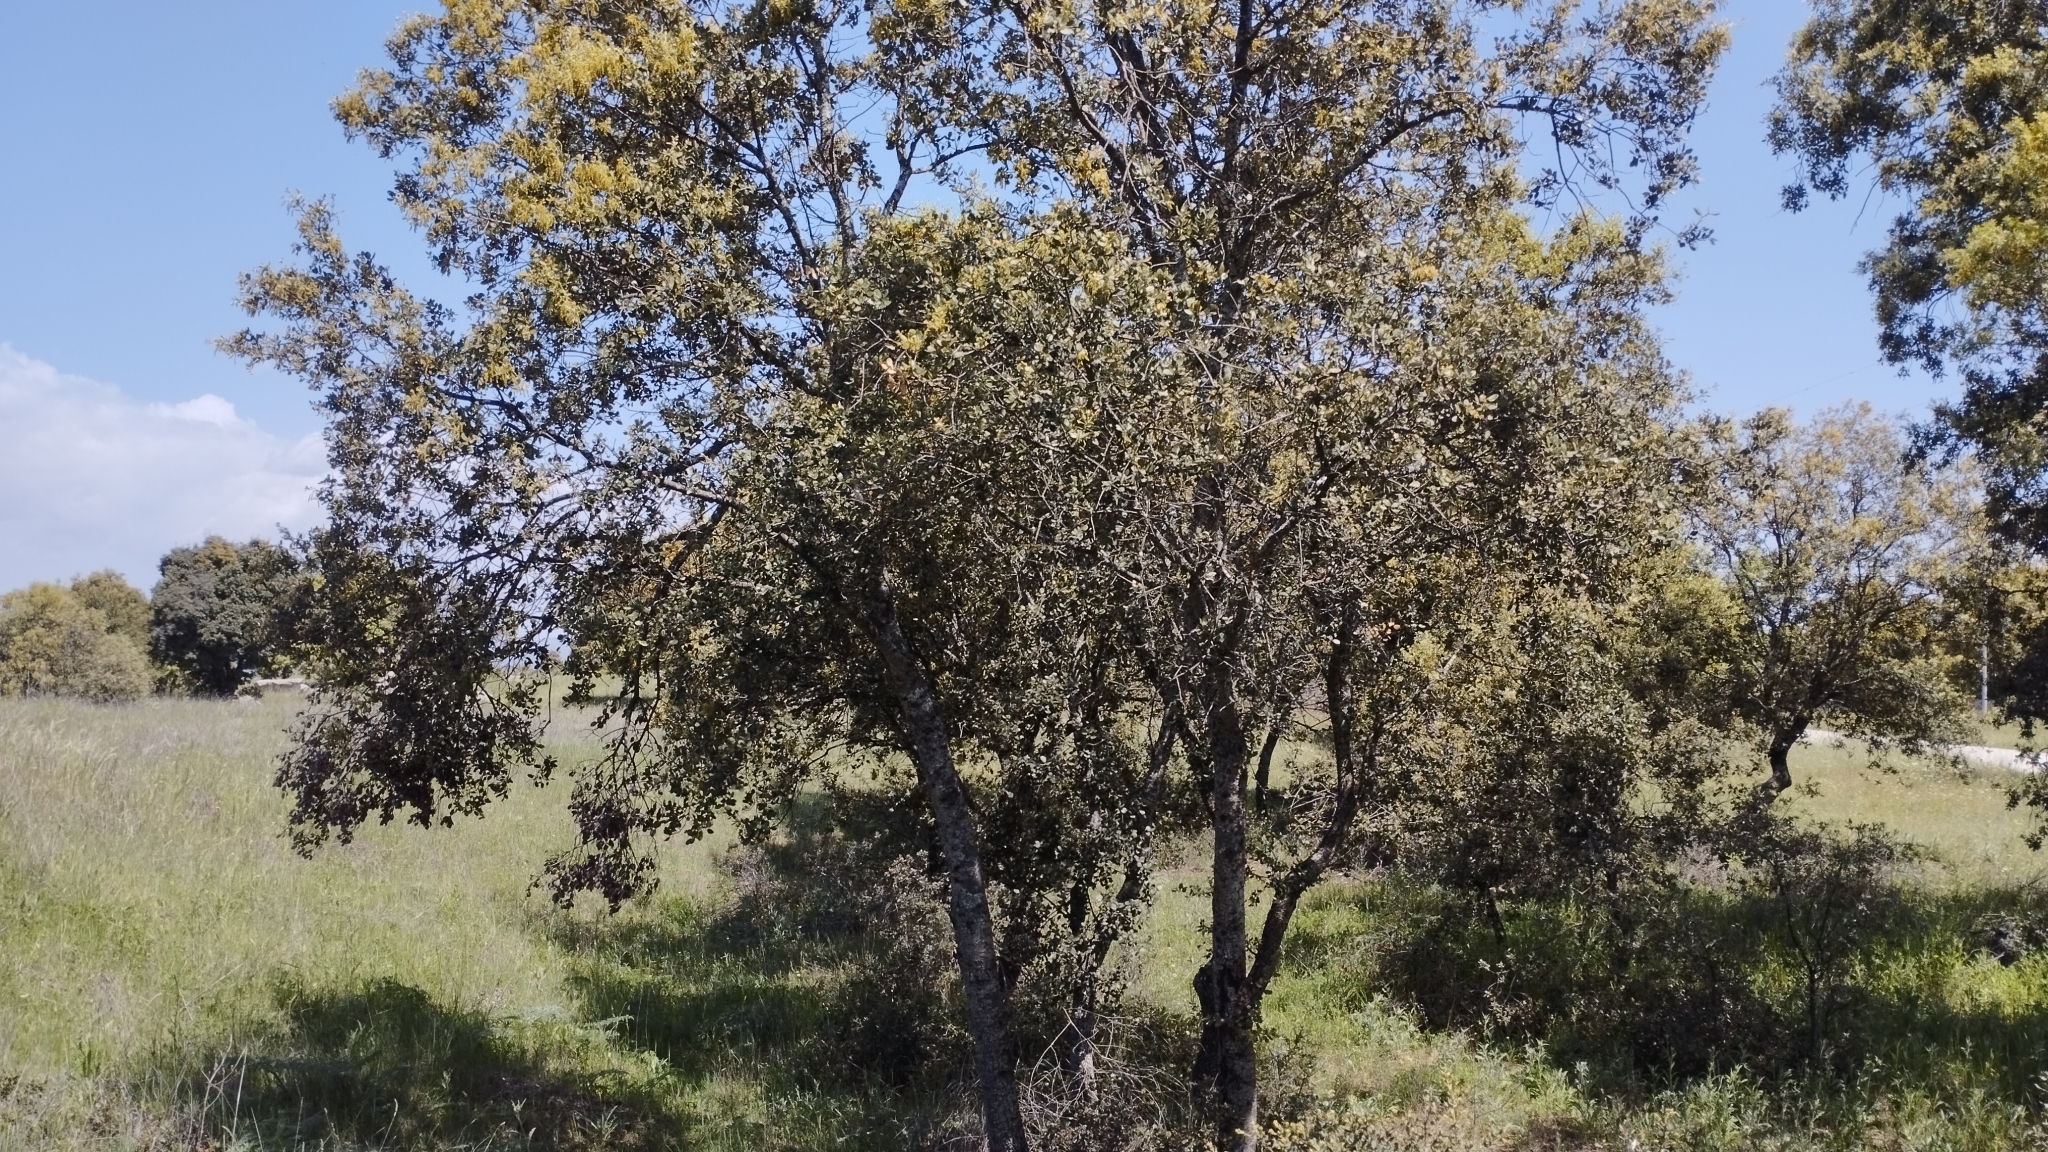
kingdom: Plantae
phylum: Tracheophyta
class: Magnoliopsida
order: Fagales
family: Fagaceae
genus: Quercus
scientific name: Quercus rotundifolia
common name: Holm oak
